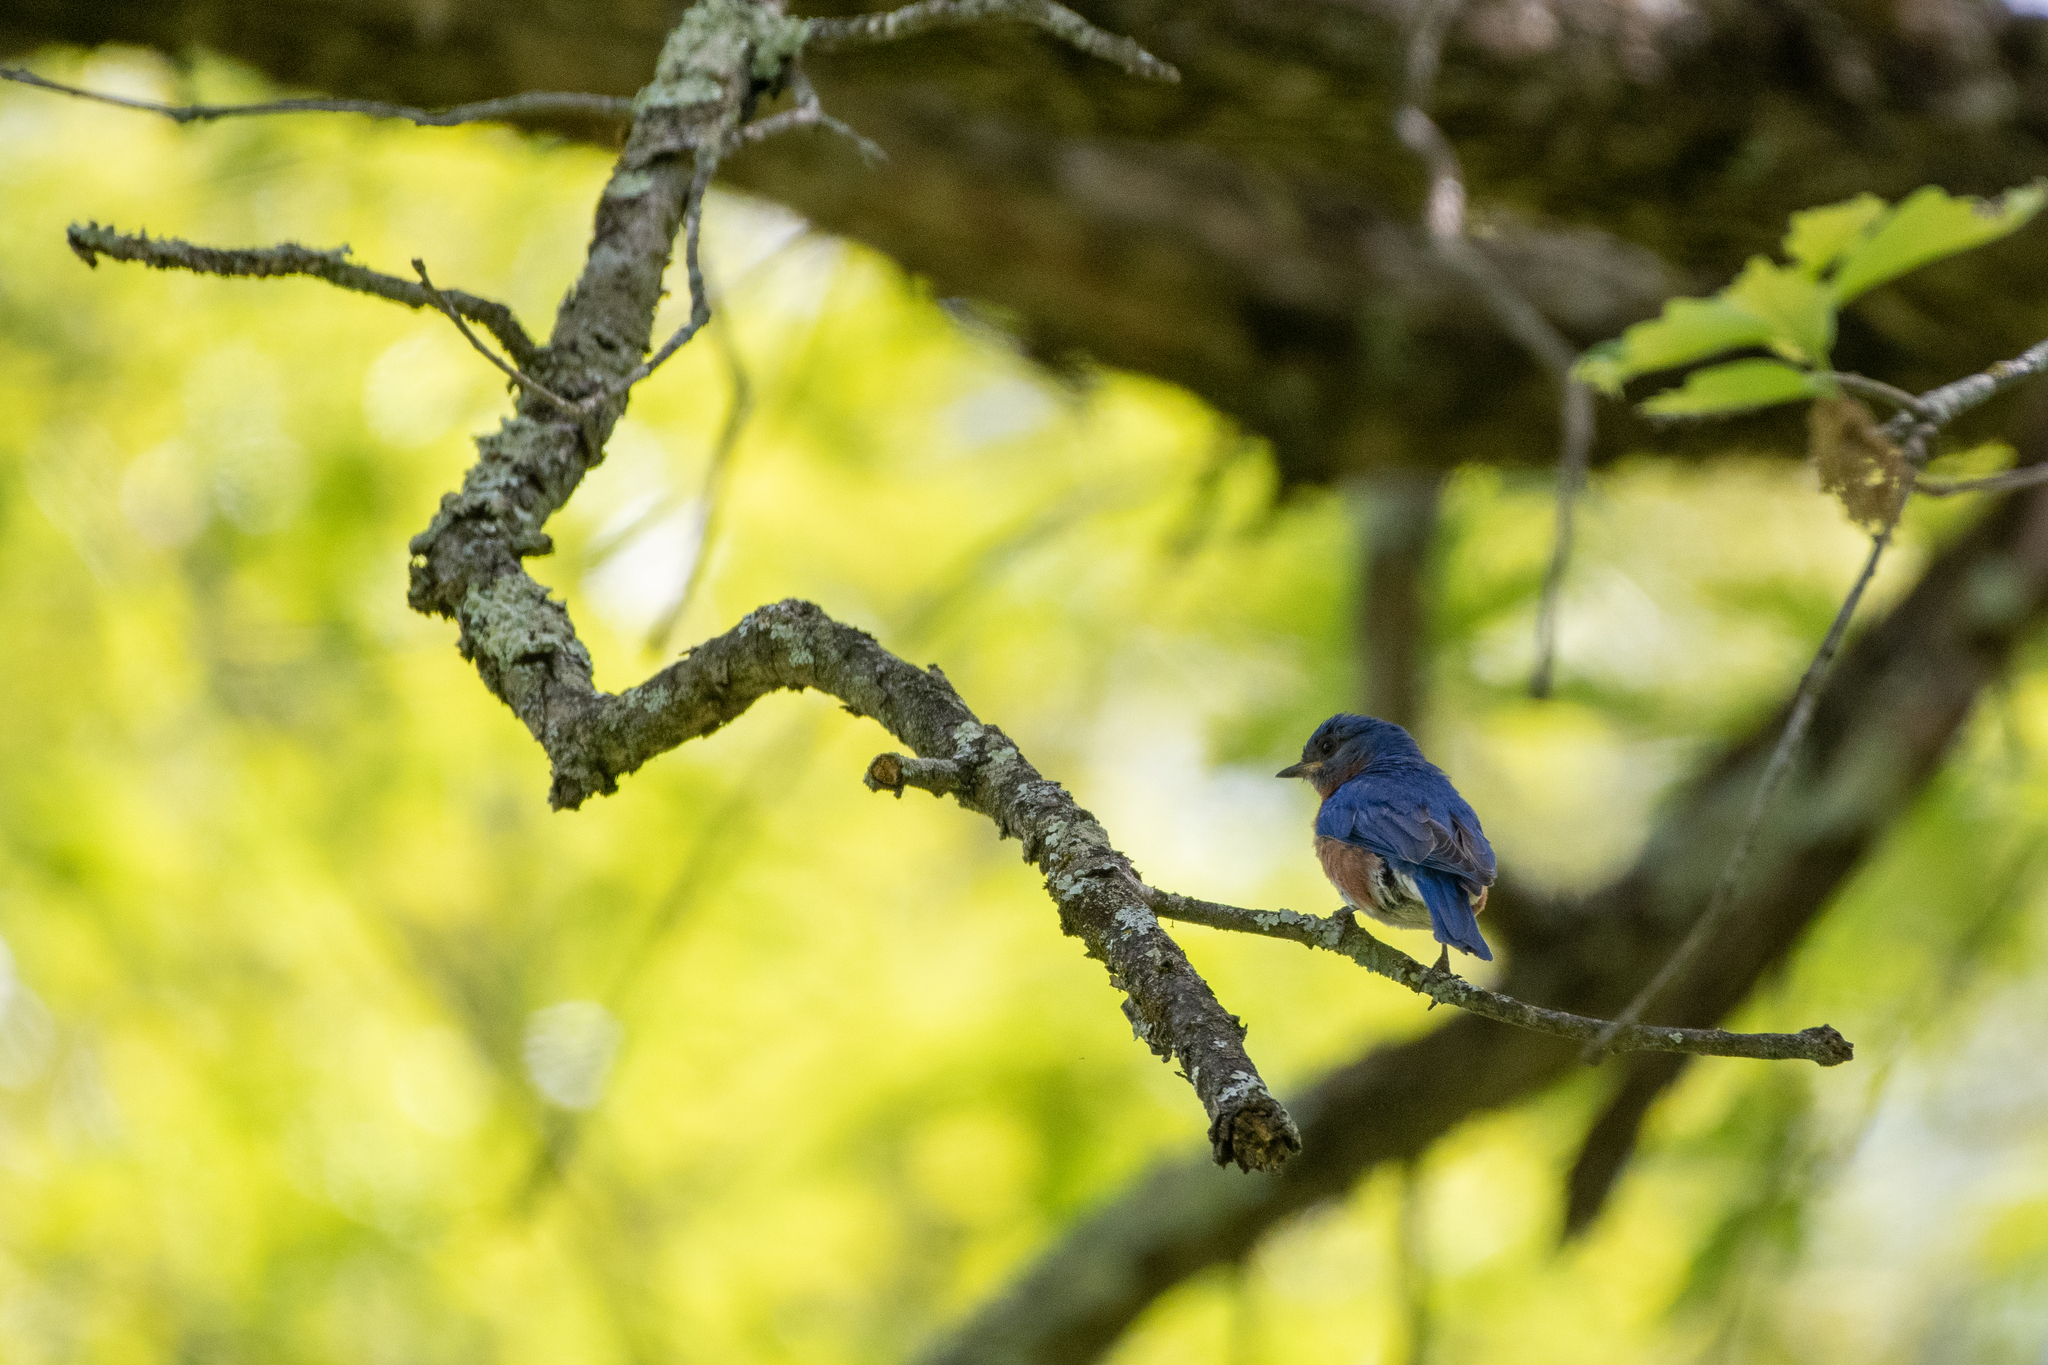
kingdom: Animalia
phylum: Chordata
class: Aves
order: Passeriformes
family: Turdidae
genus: Sialia
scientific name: Sialia sialis
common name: Eastern bluebird
